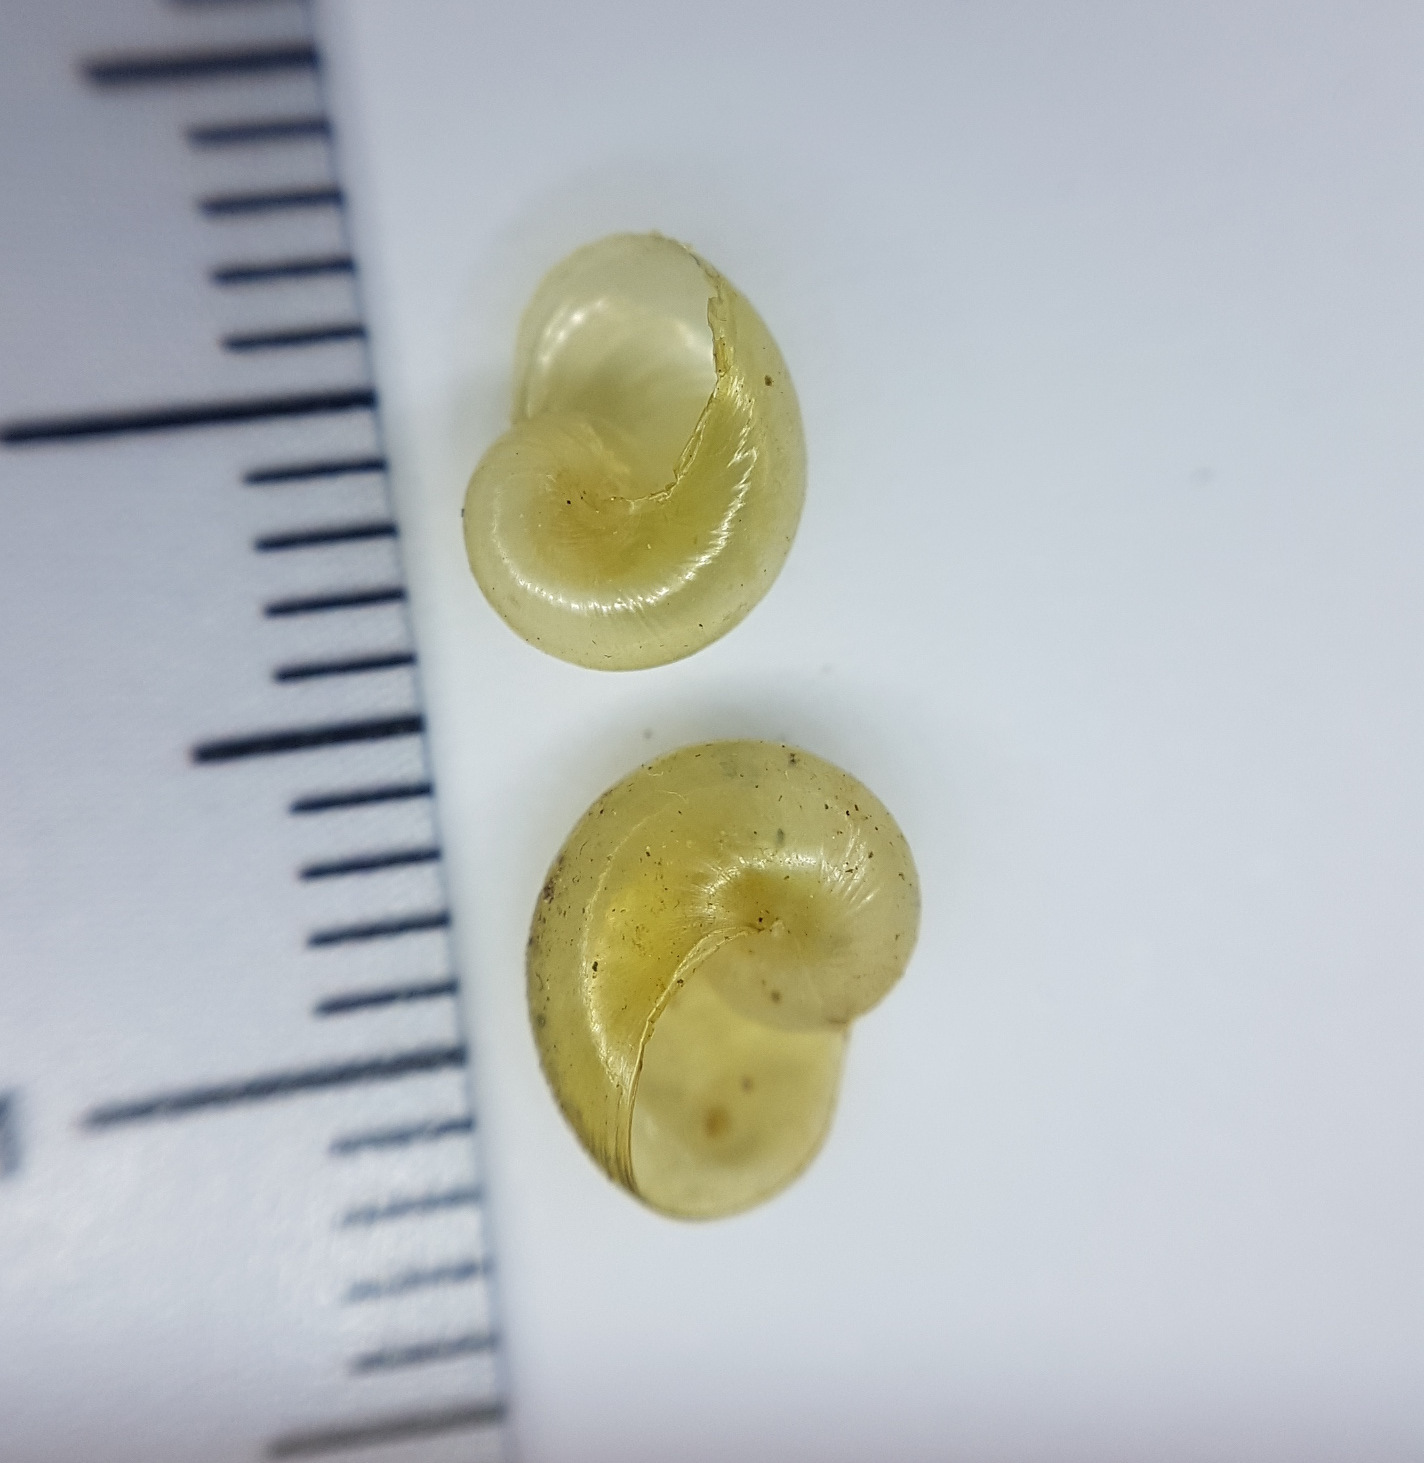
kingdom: Animalia
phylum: Mollusca
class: Gastropoda
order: Stylommatophora
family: Vitrinidae
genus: Phenacolimax
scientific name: Phenacolimax major
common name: Greater pellucid glass snail
